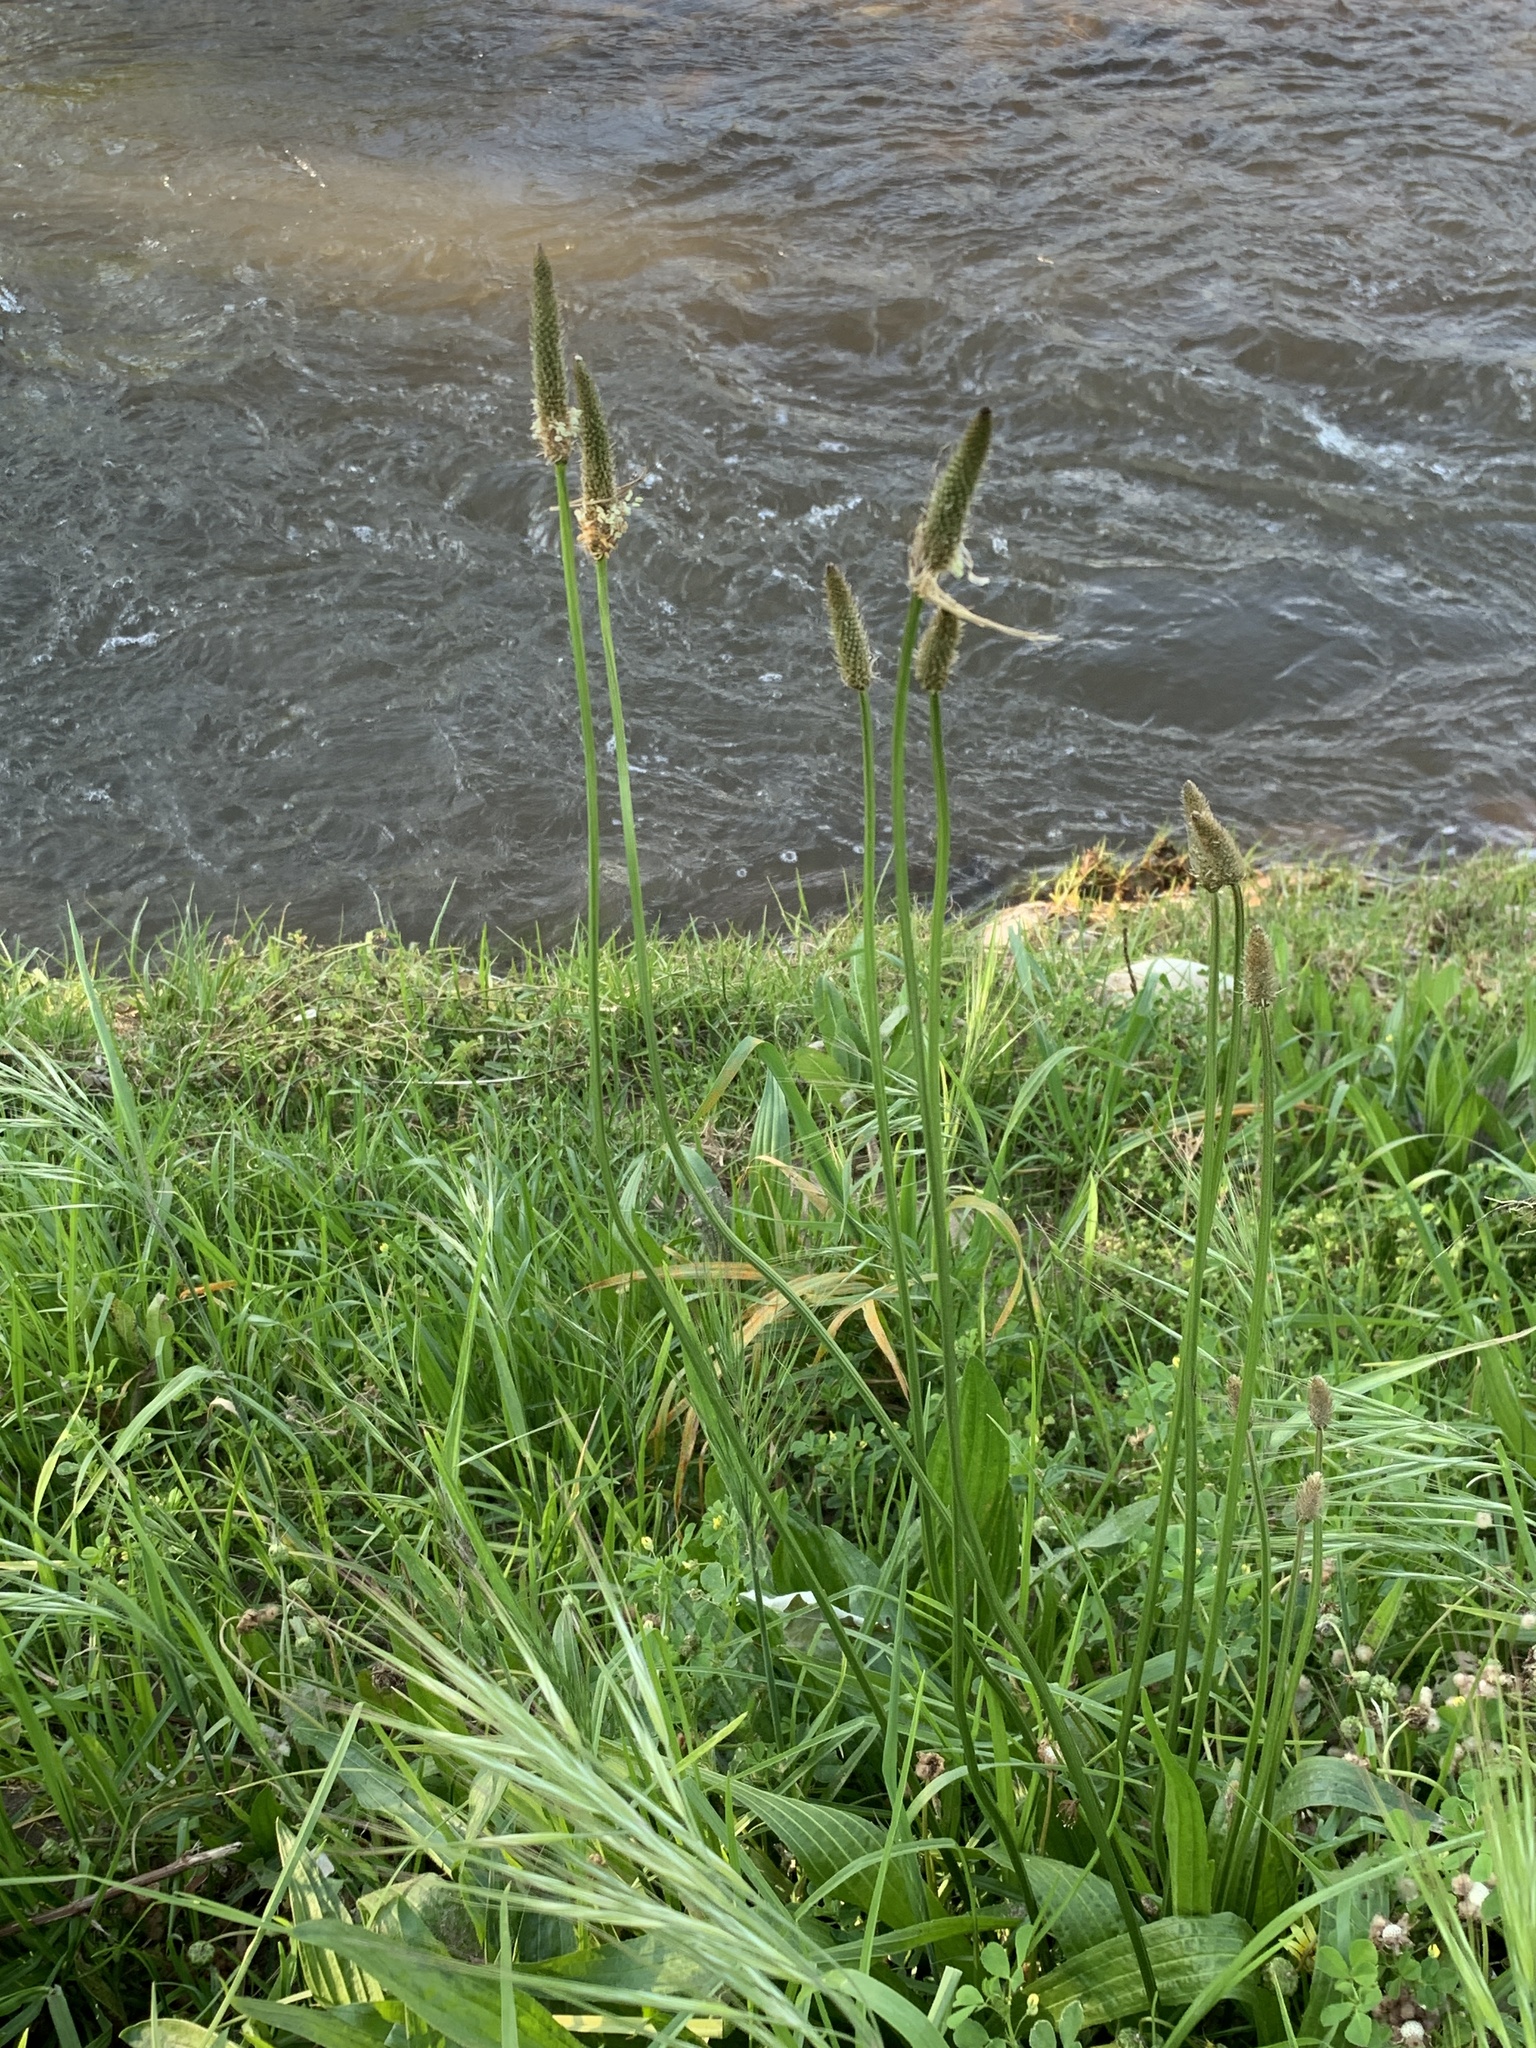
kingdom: Plantae
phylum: Tracheophyta
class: Magnoliopsida
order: Lamiales
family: Plantaginaceae
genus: Plantago
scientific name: Plantago lanceolata
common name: Ribwort plantain
